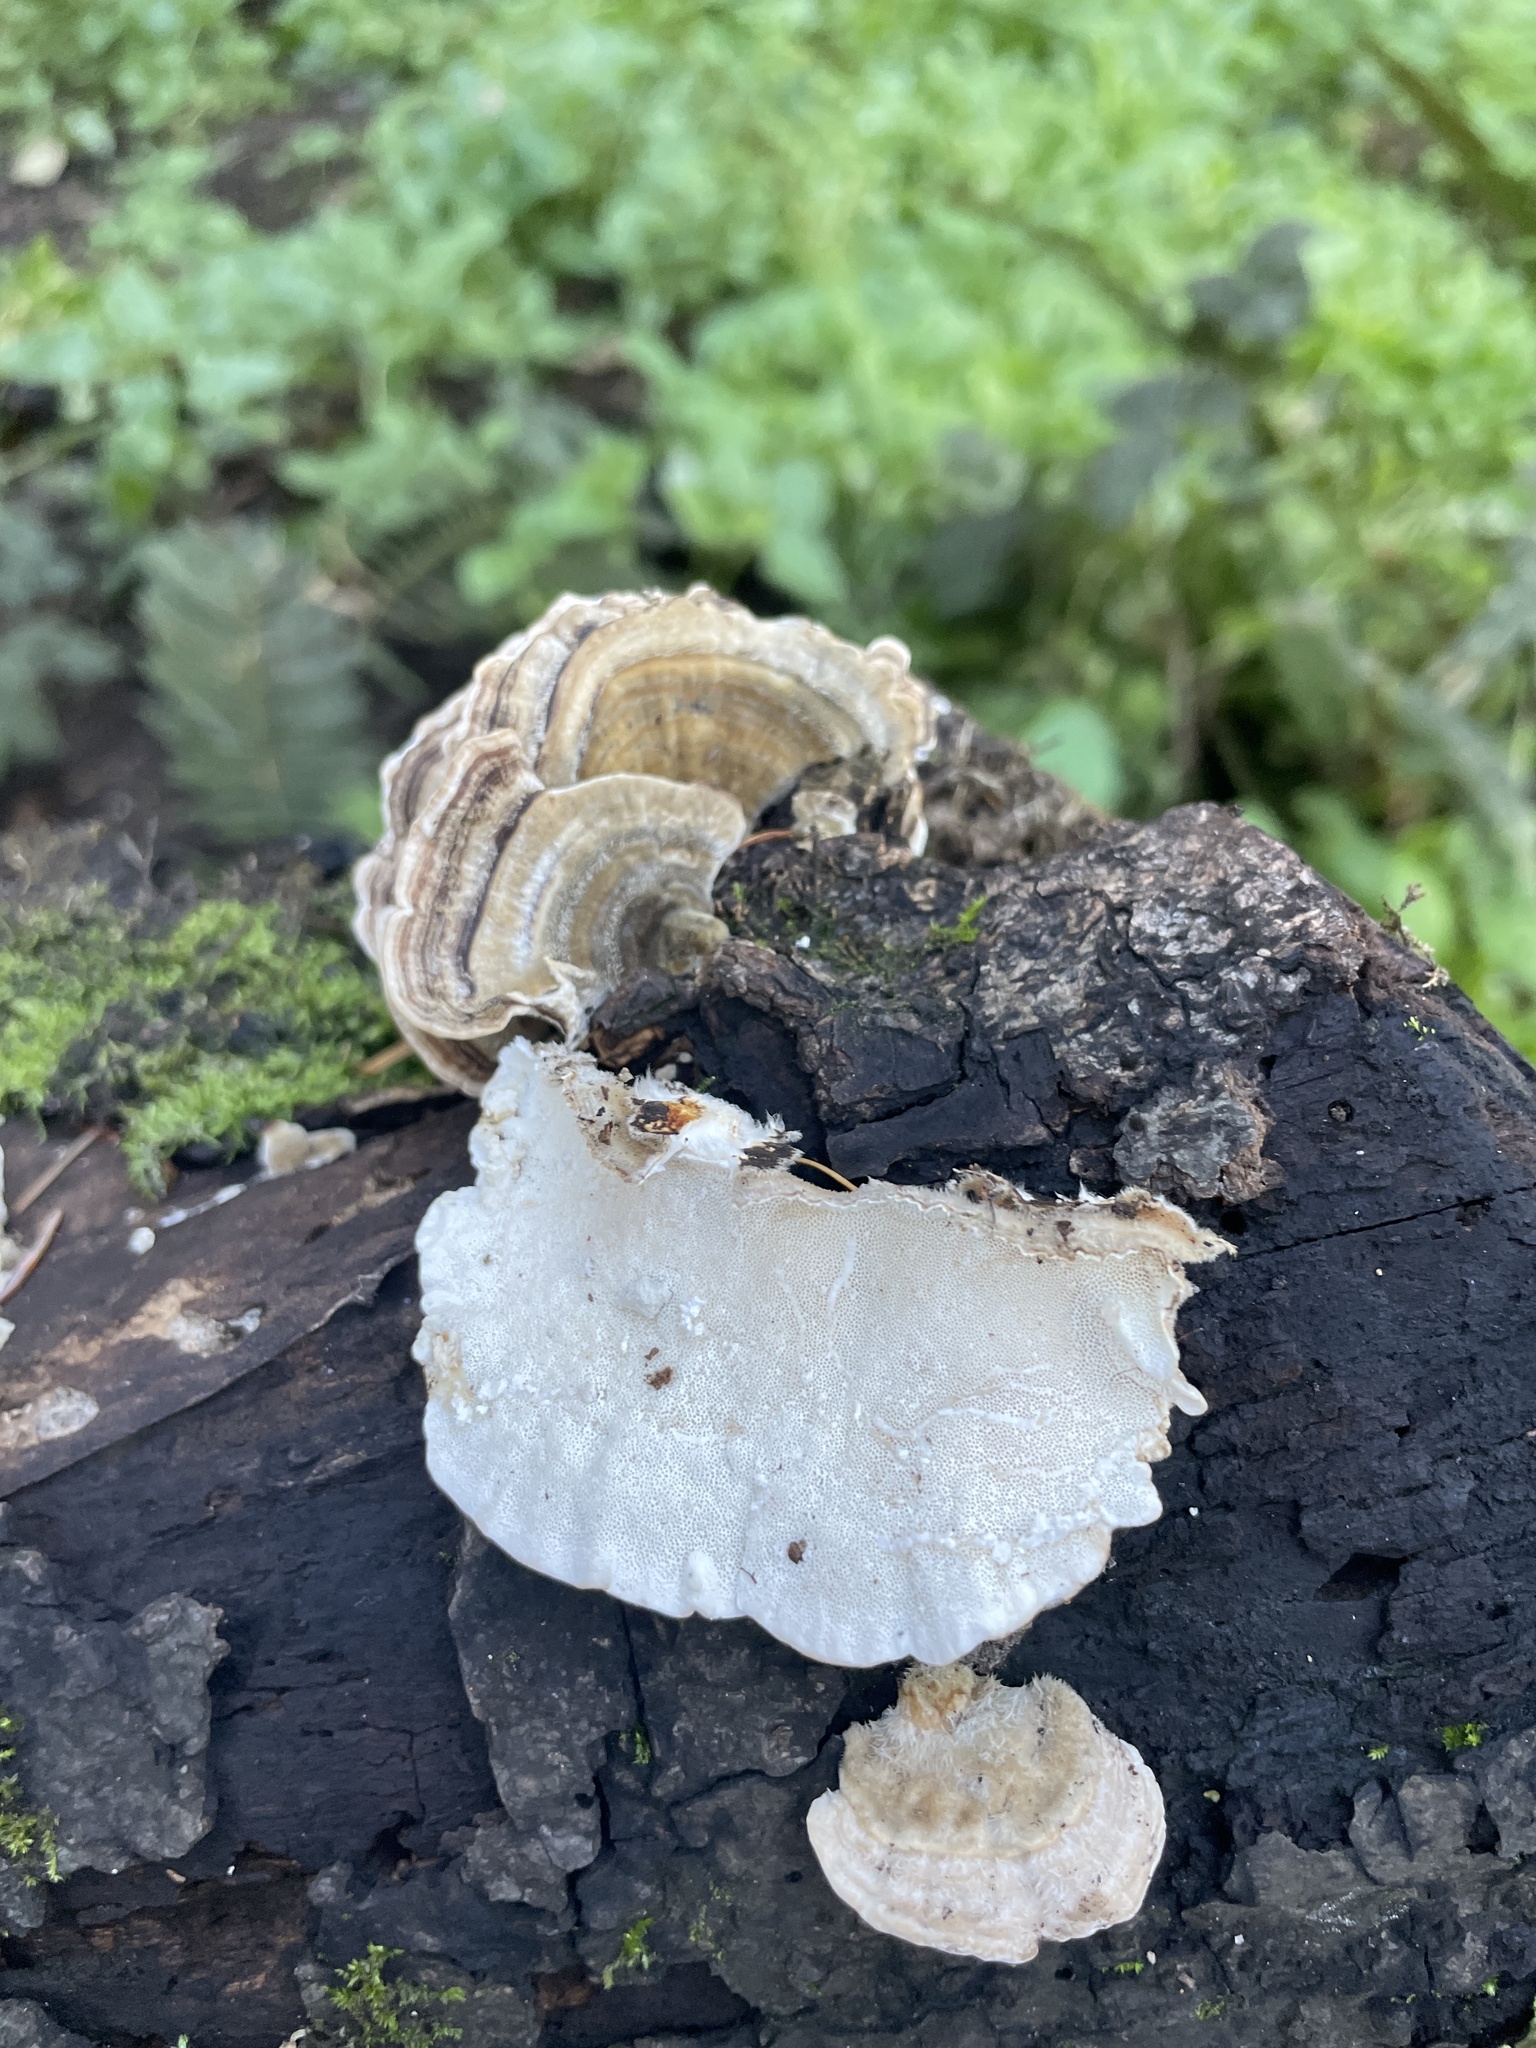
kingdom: Fungi
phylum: Basidiomycota
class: Agaricomycetes
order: Polyporales
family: Polyporaceae
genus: Trametes
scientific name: Trametes versicolor
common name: Turkeytail
